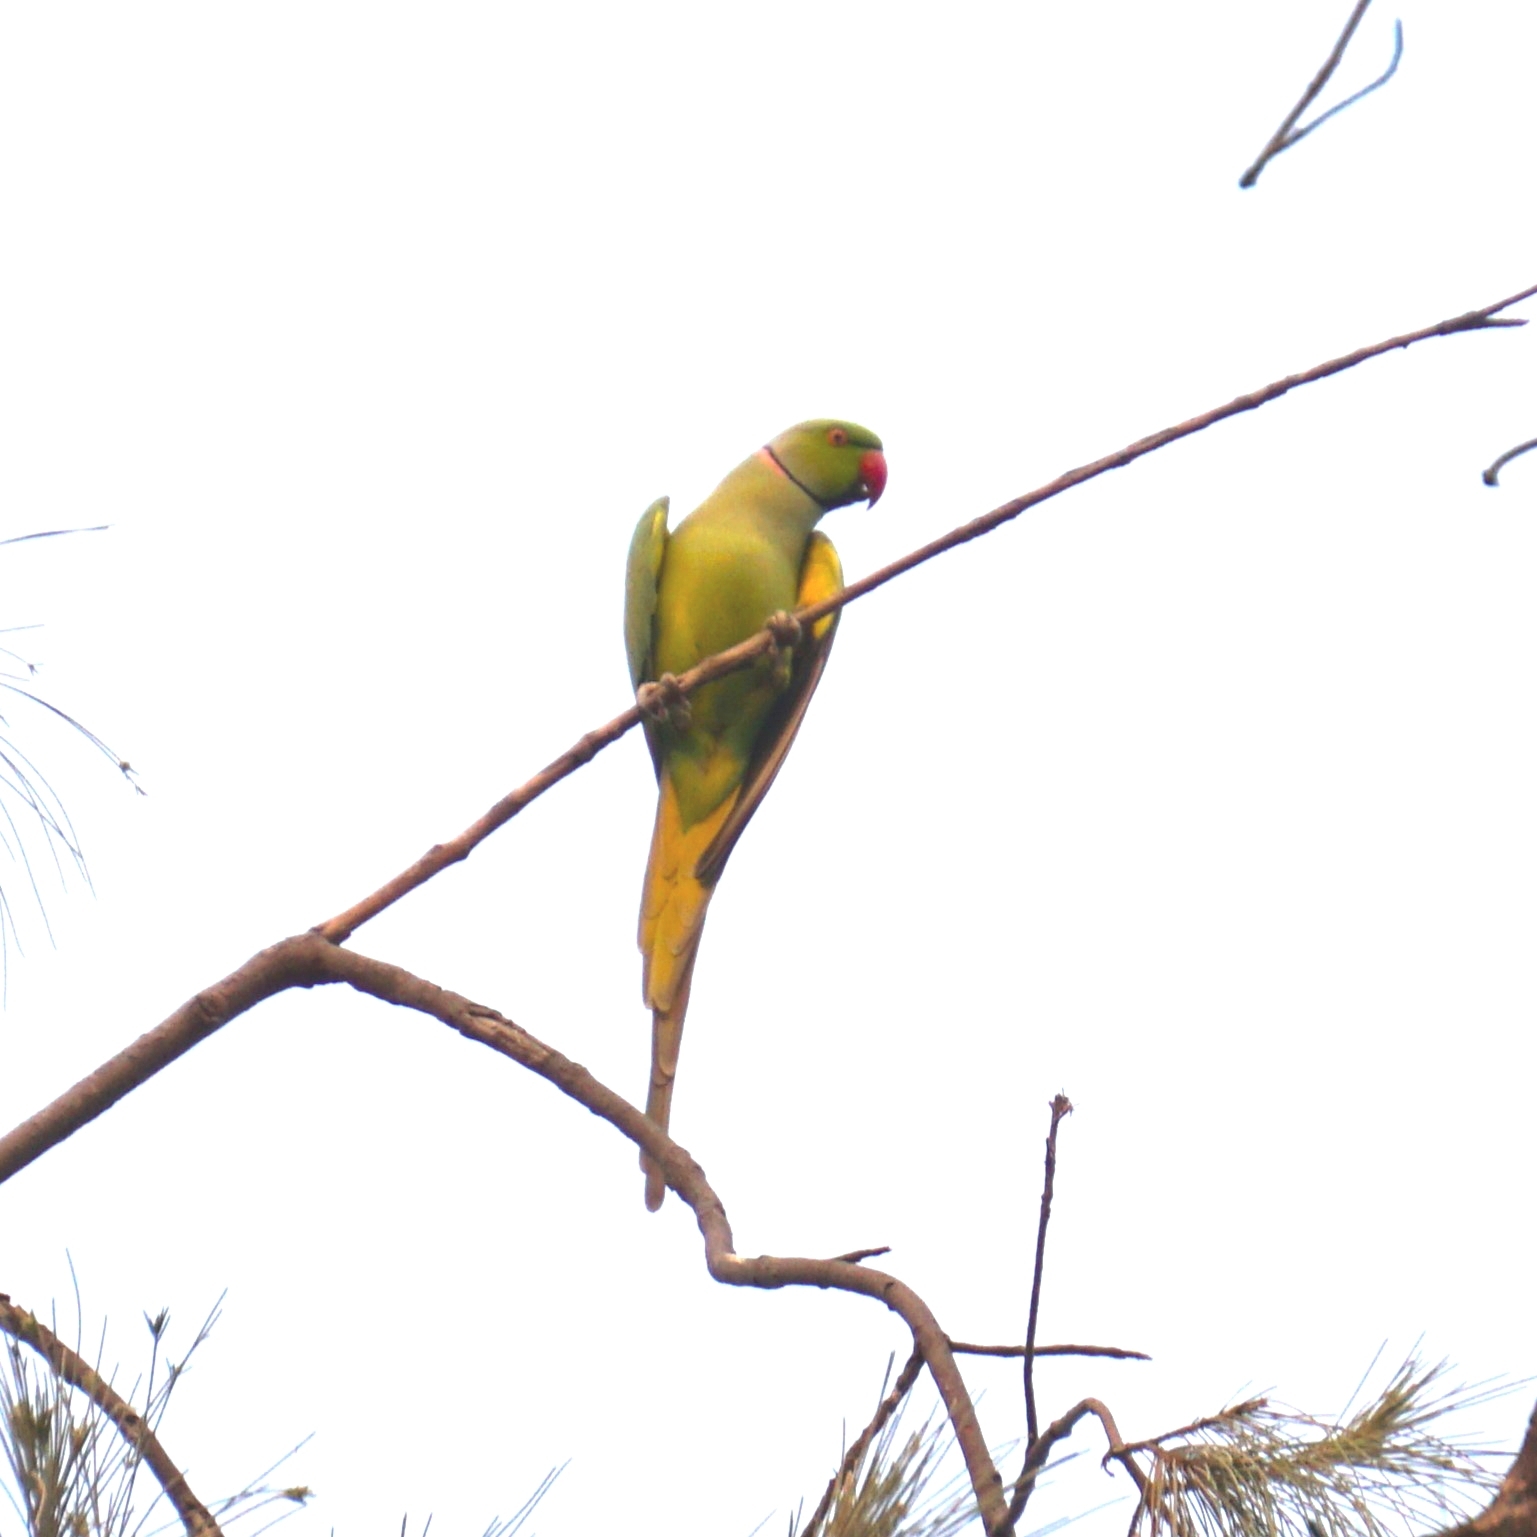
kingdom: Animalia
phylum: Chordata
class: Aves
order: Psittaciformes
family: Psittacidae
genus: Psittacula
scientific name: Psittacula krameri
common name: Rose-ringed parakeet
